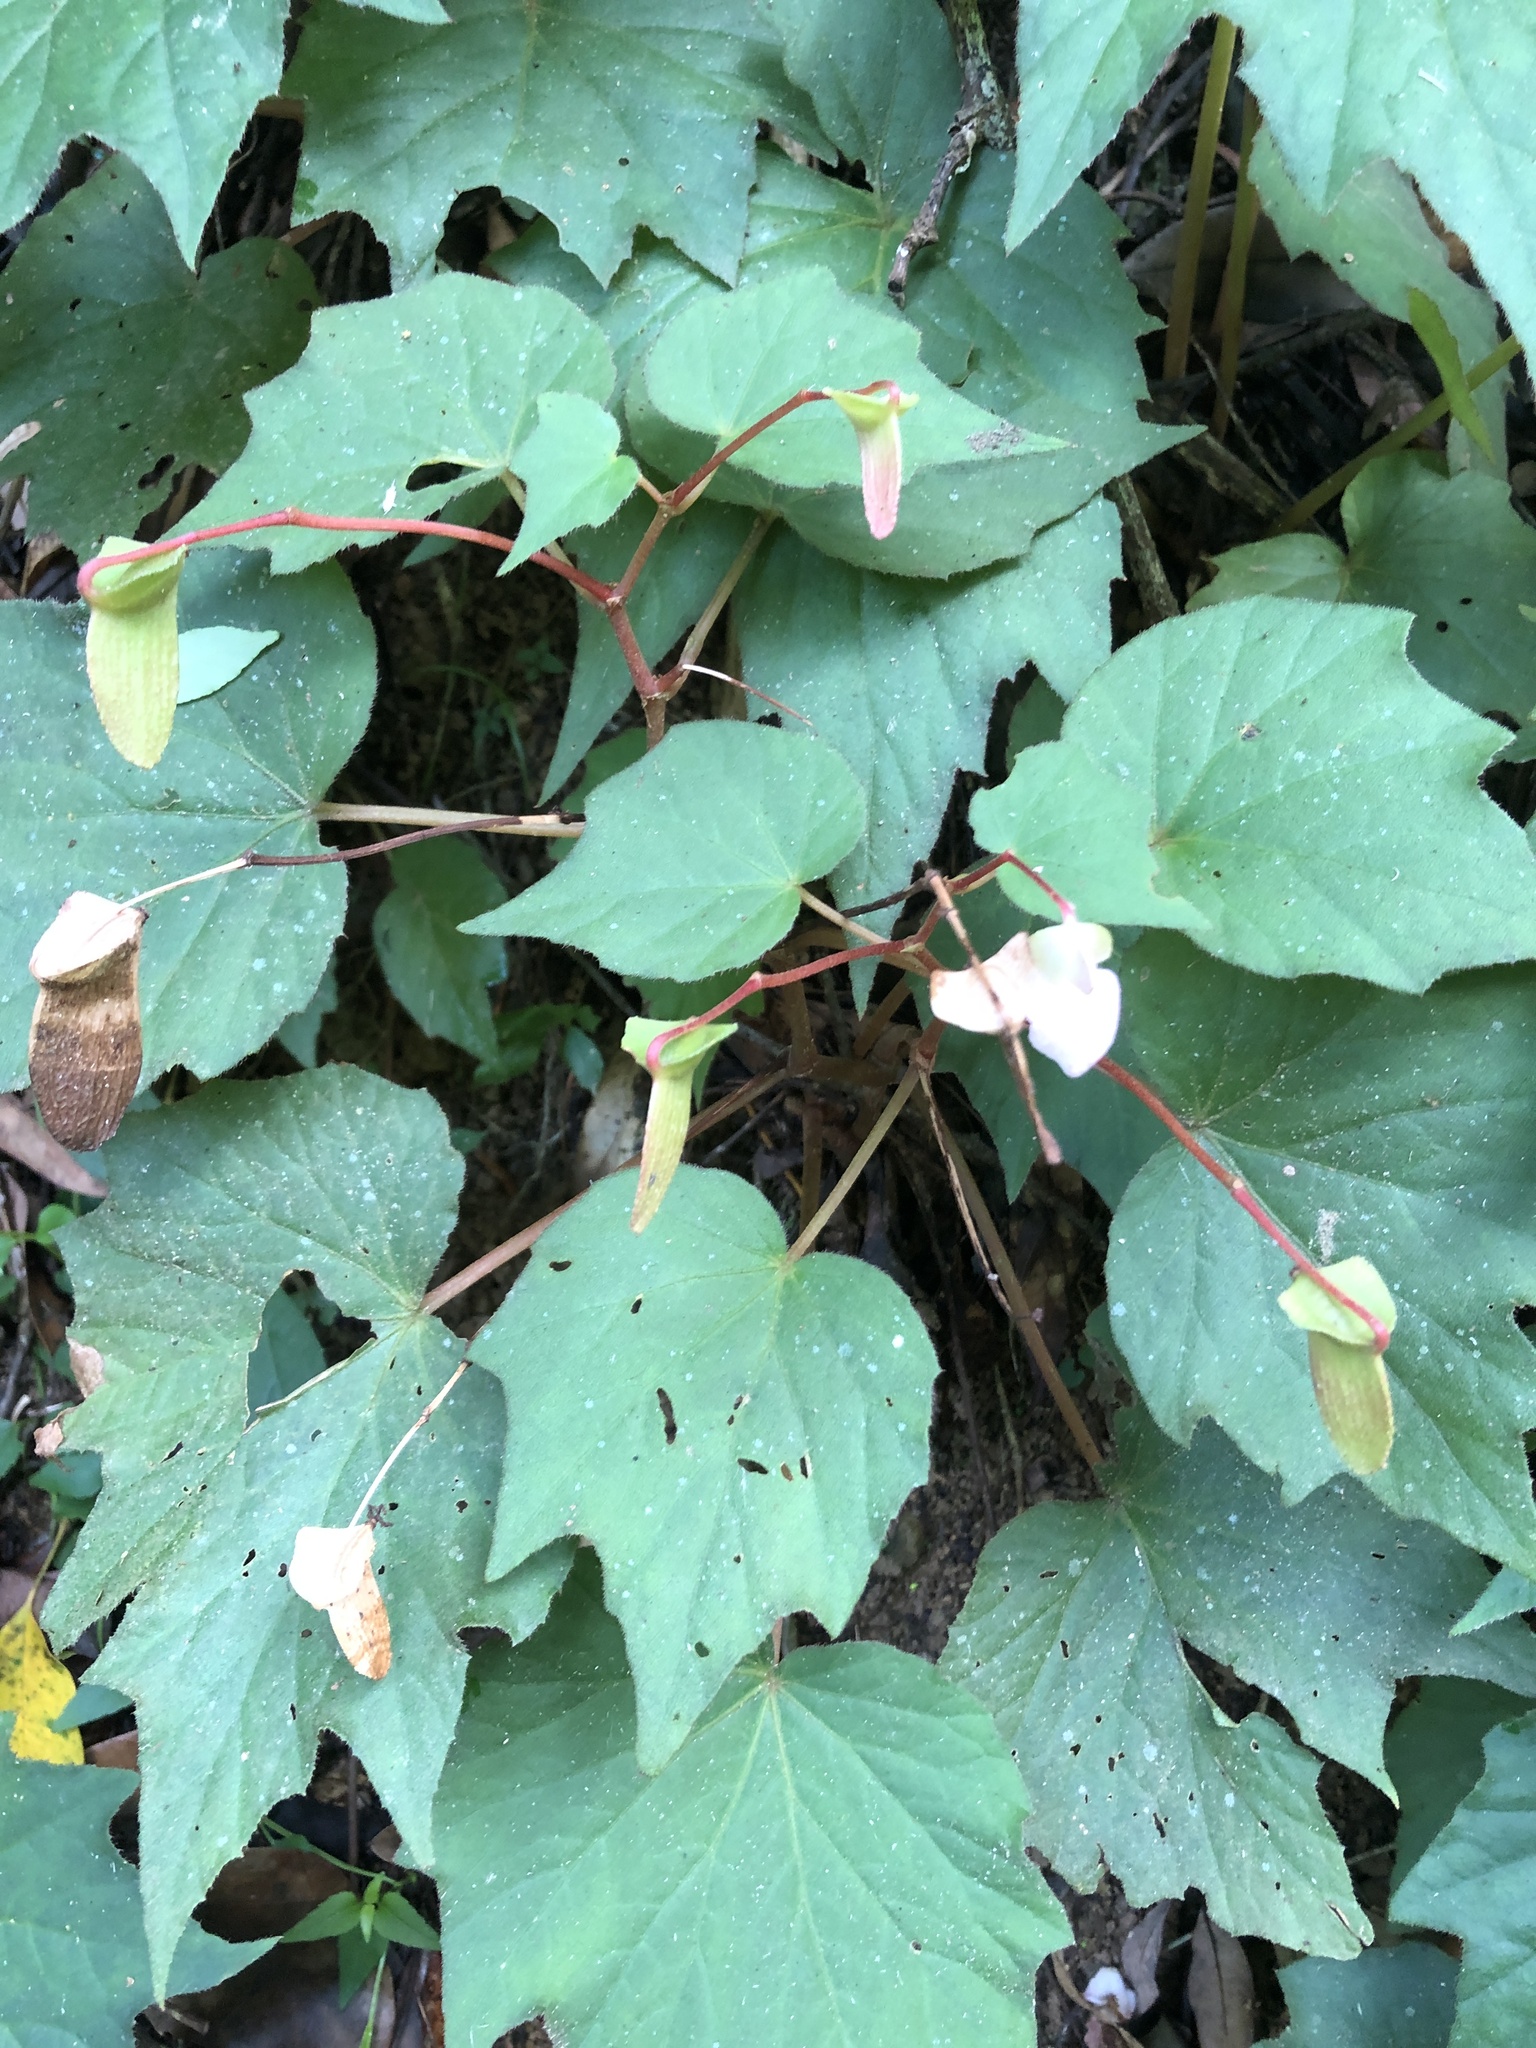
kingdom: Plantae
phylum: Tracheophyta
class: Magnoliopsida
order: Cucurbitales
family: Begoniaceae
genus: Begonia
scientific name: Begonia palmata
